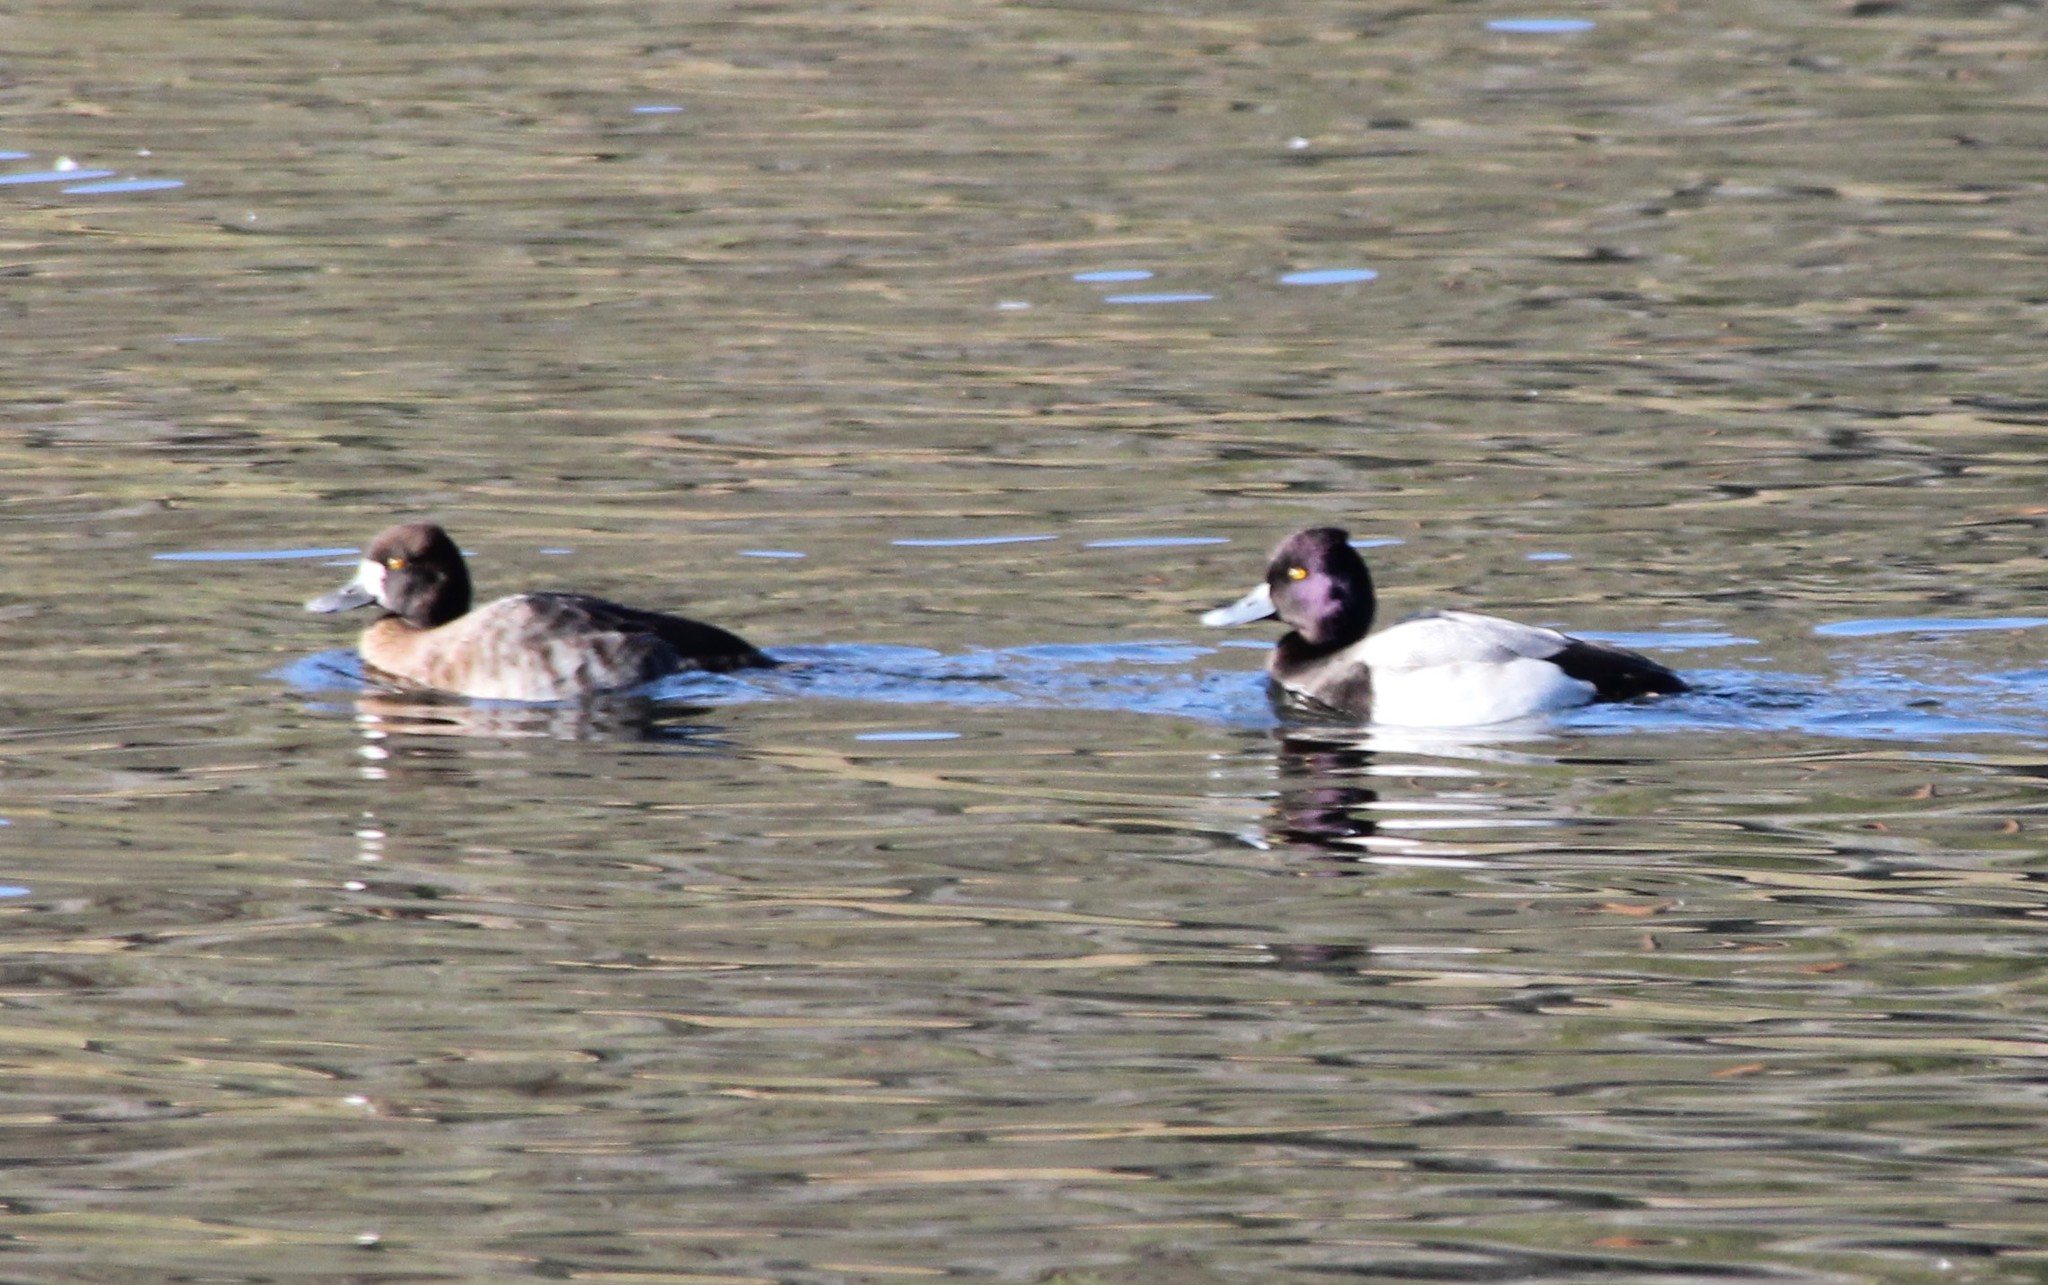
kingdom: Animalia
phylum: Chordata
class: Aves
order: Anseriformes
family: Anatidae
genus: Aythya
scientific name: Aythya affinis
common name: Lesser scaup
